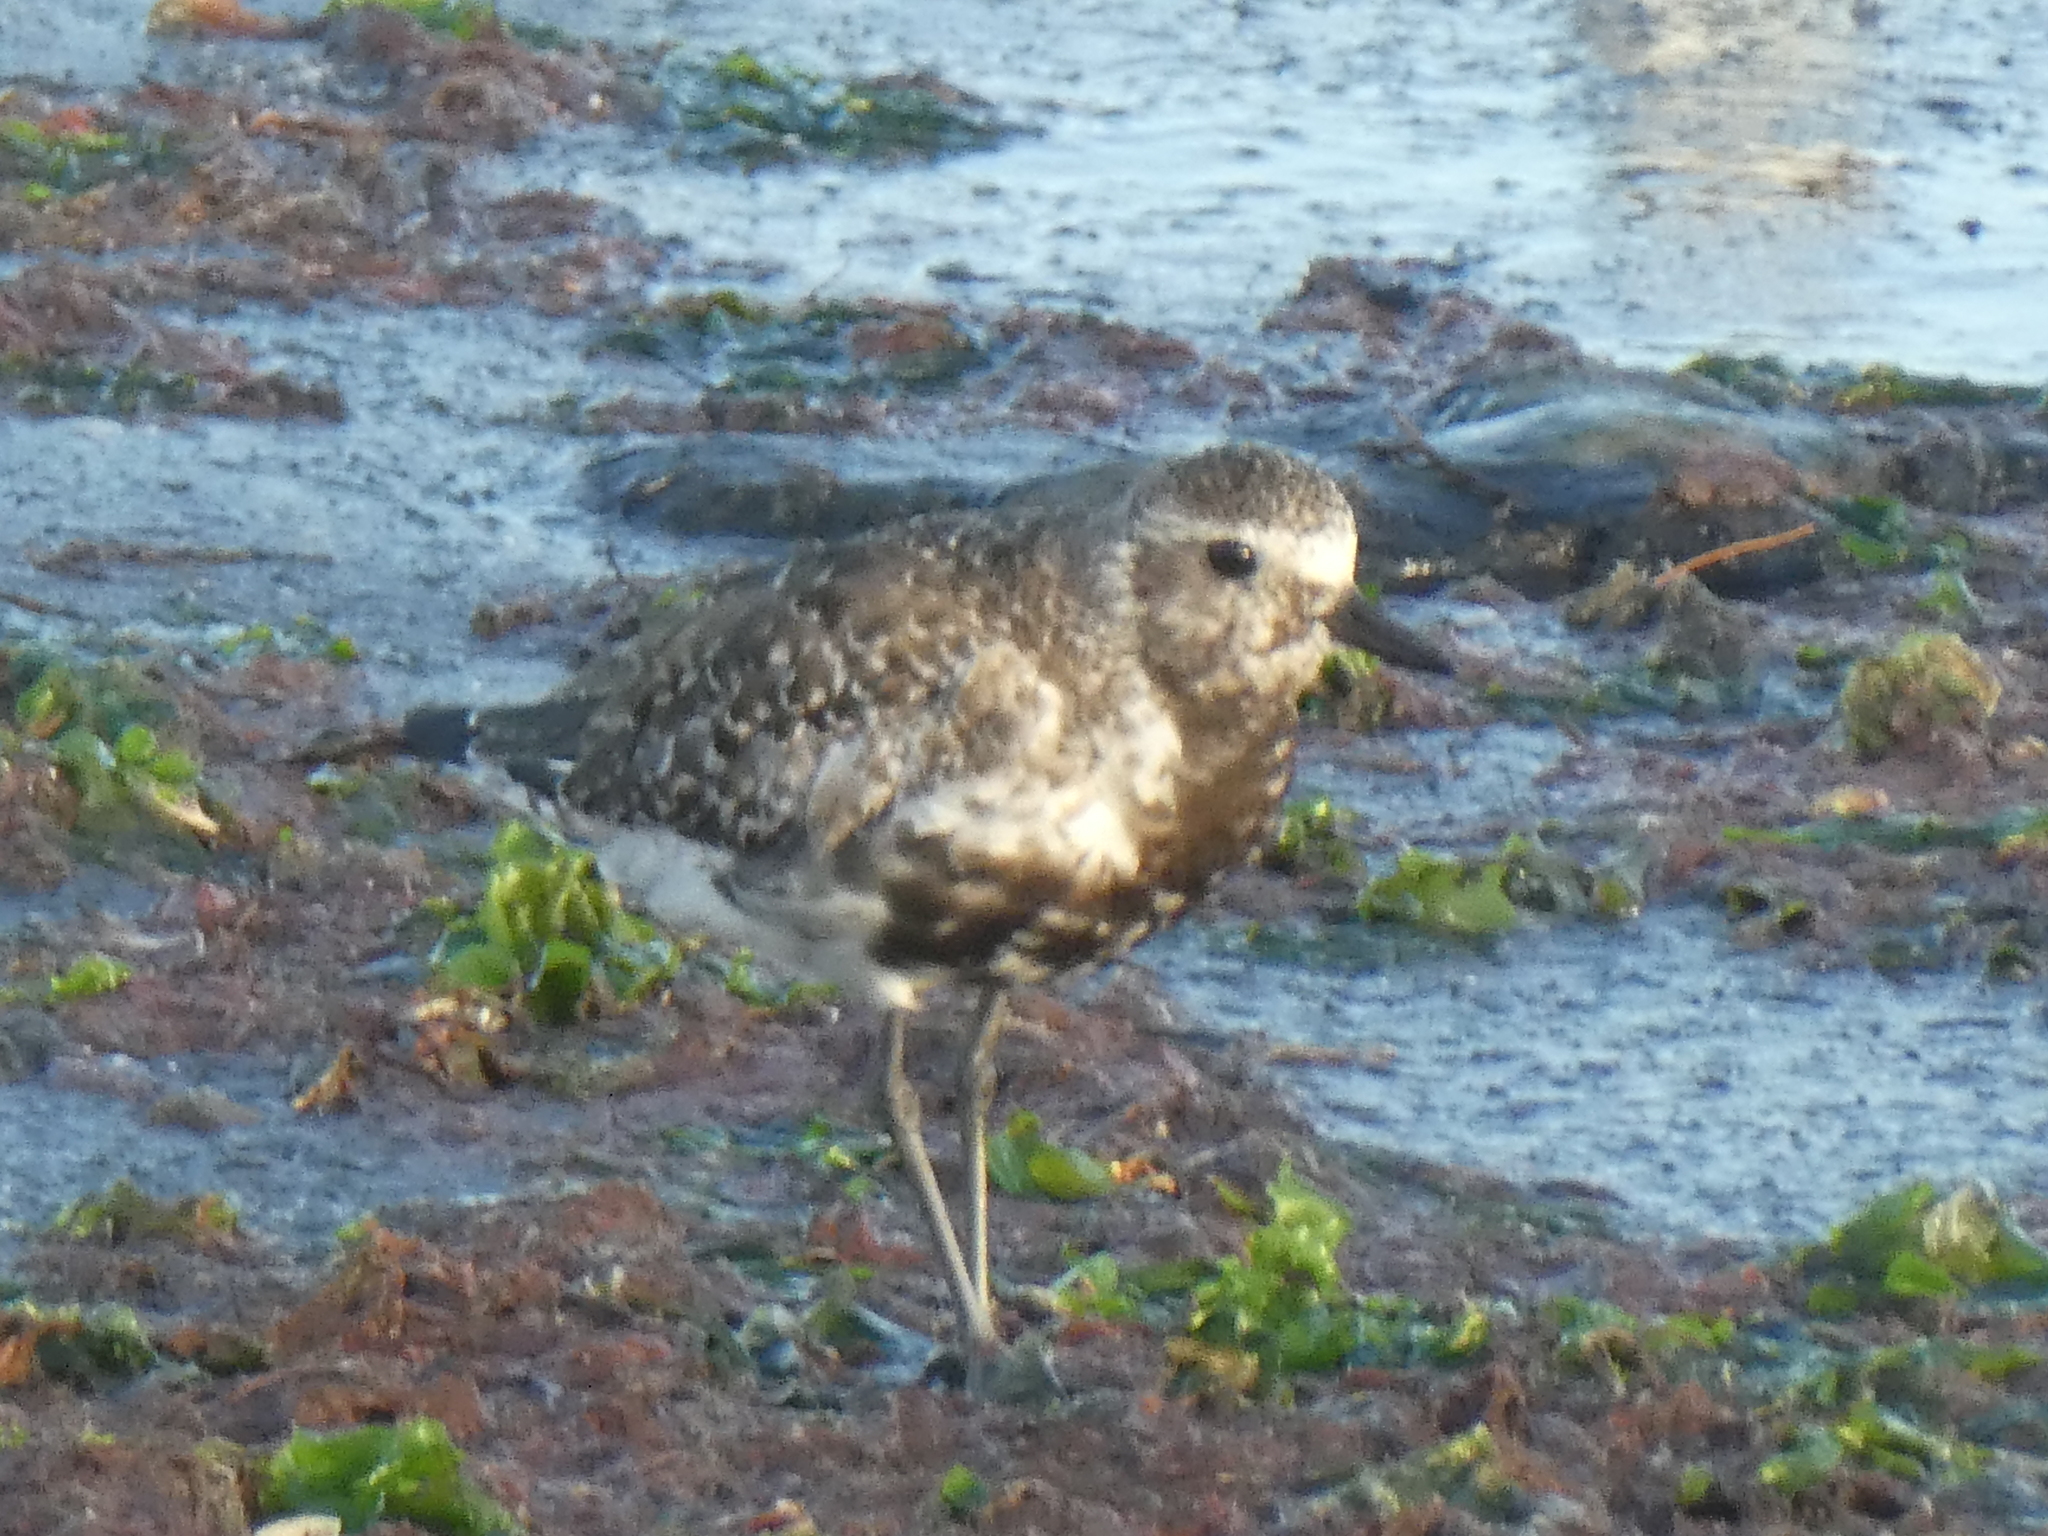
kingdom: Animalia
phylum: Chordata
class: Aves
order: Charadriiformes
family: Charadriidae
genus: Pluvialis
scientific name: Pluvialis squatarola
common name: Grey plover
